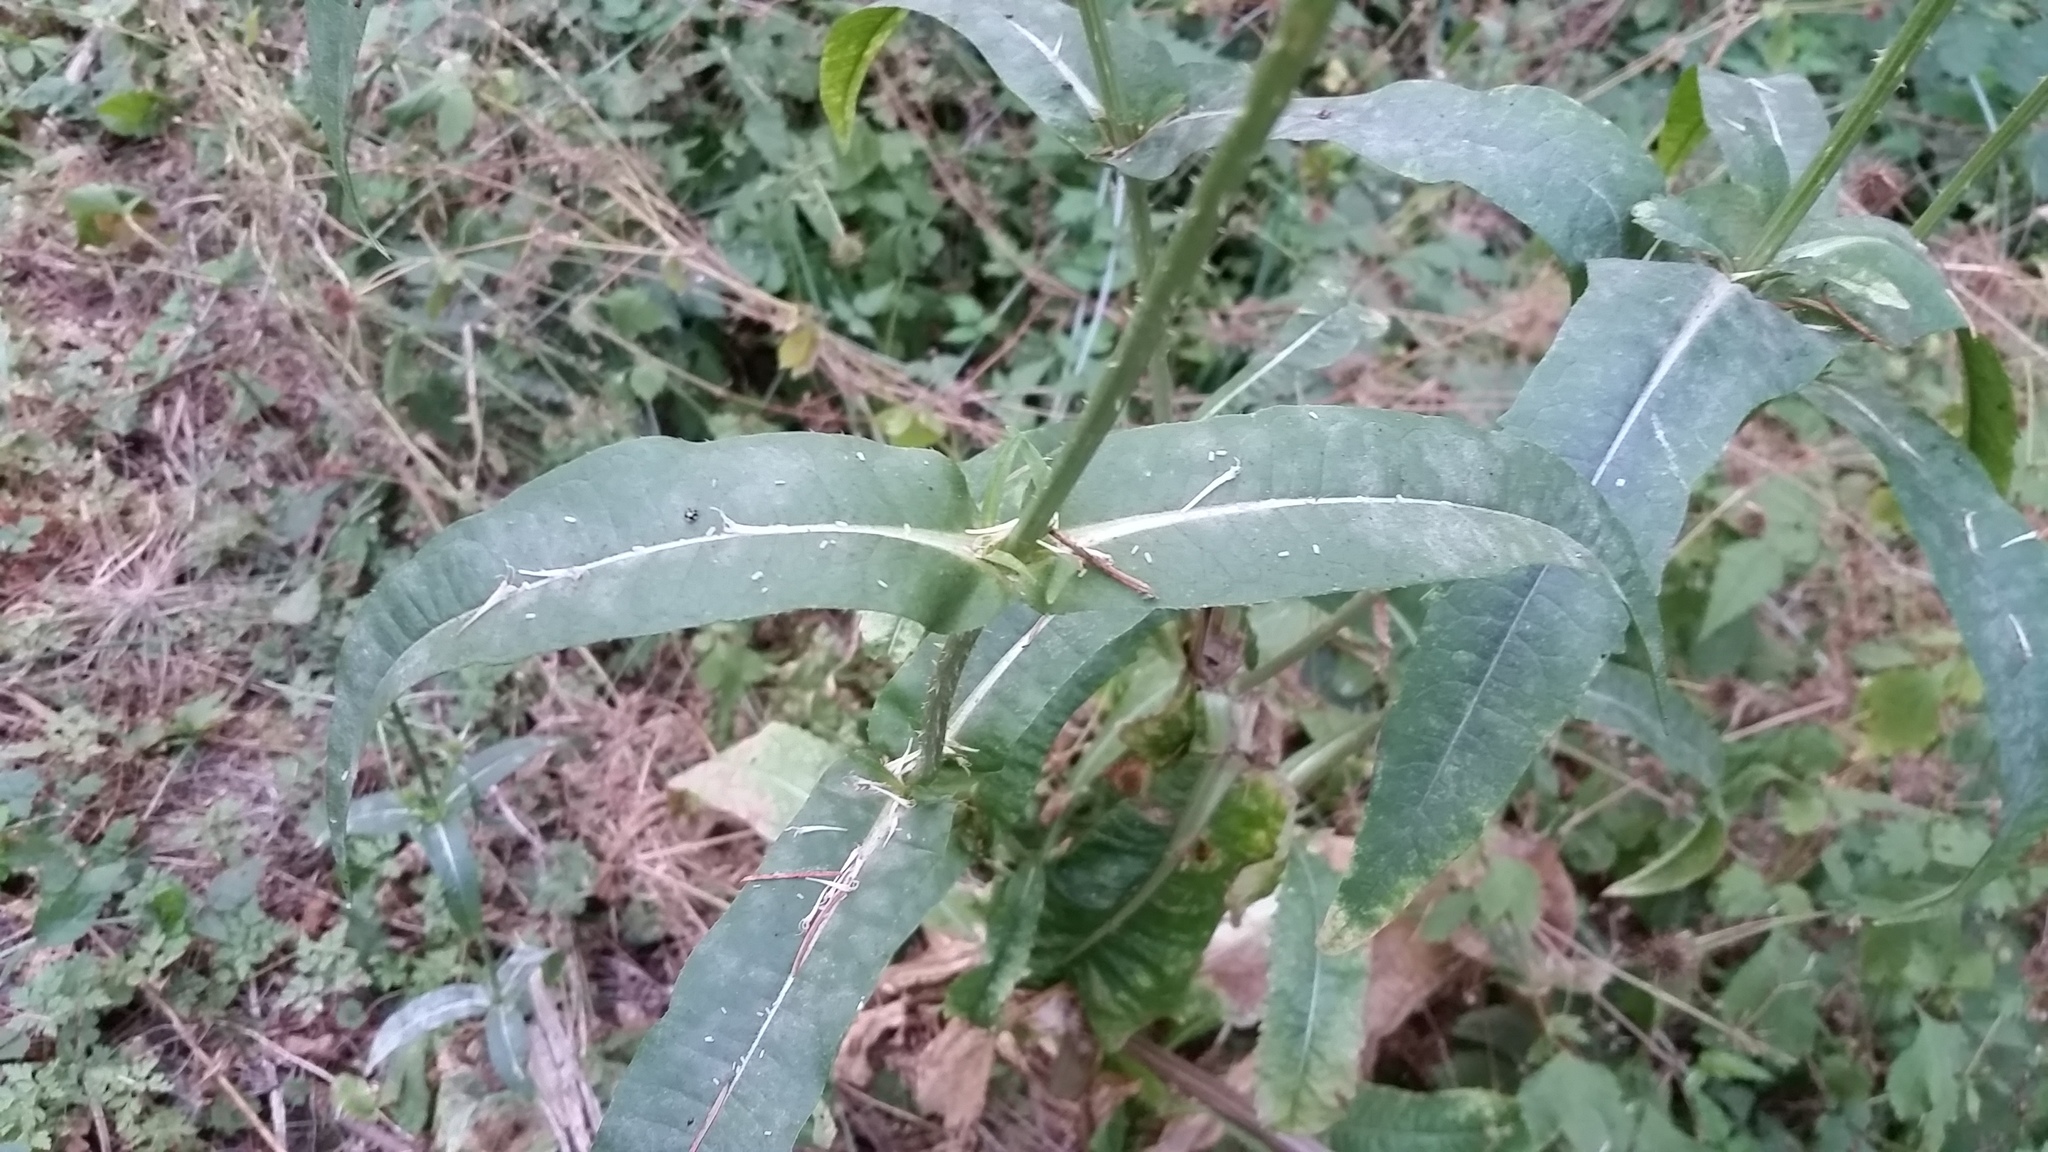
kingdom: Plantae
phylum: Tracheophyta
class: Magnoliopsida
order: Dipsacales
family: Caprifoliaceae
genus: Dipsacus
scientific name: Dipsacus fullonum
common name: Teasel
